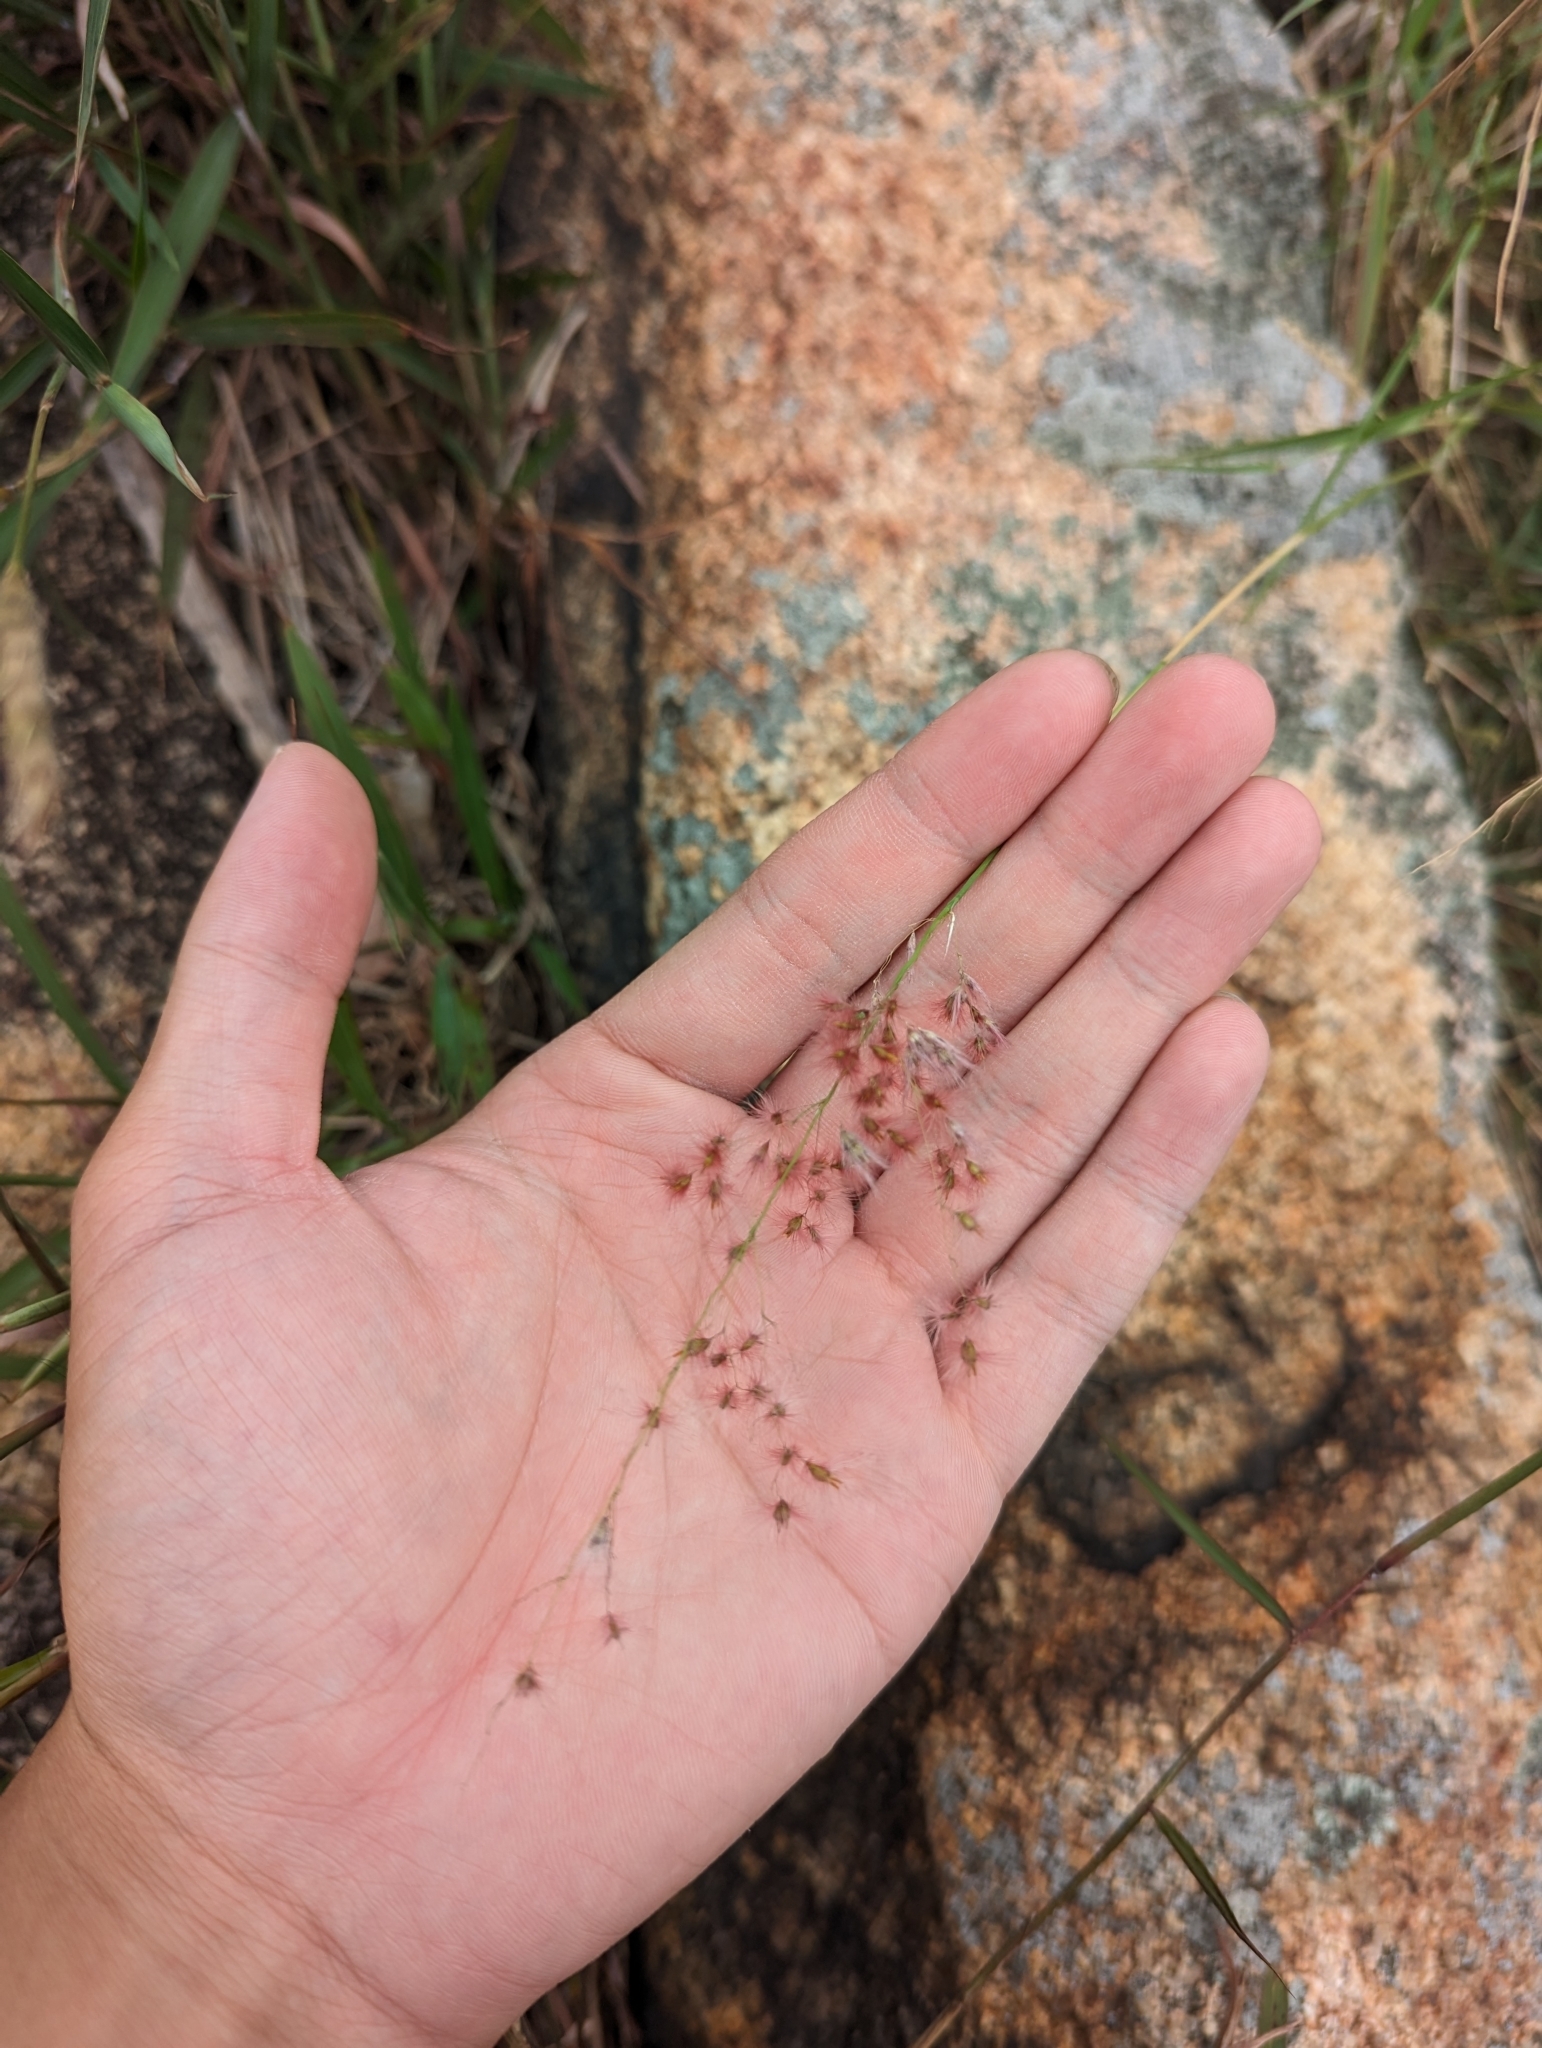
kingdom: Plantae
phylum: Tracheophyta
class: Liliopsida
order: Poales
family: Poaceae
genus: Melinis
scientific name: Melinis repens
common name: Rose natal grass
